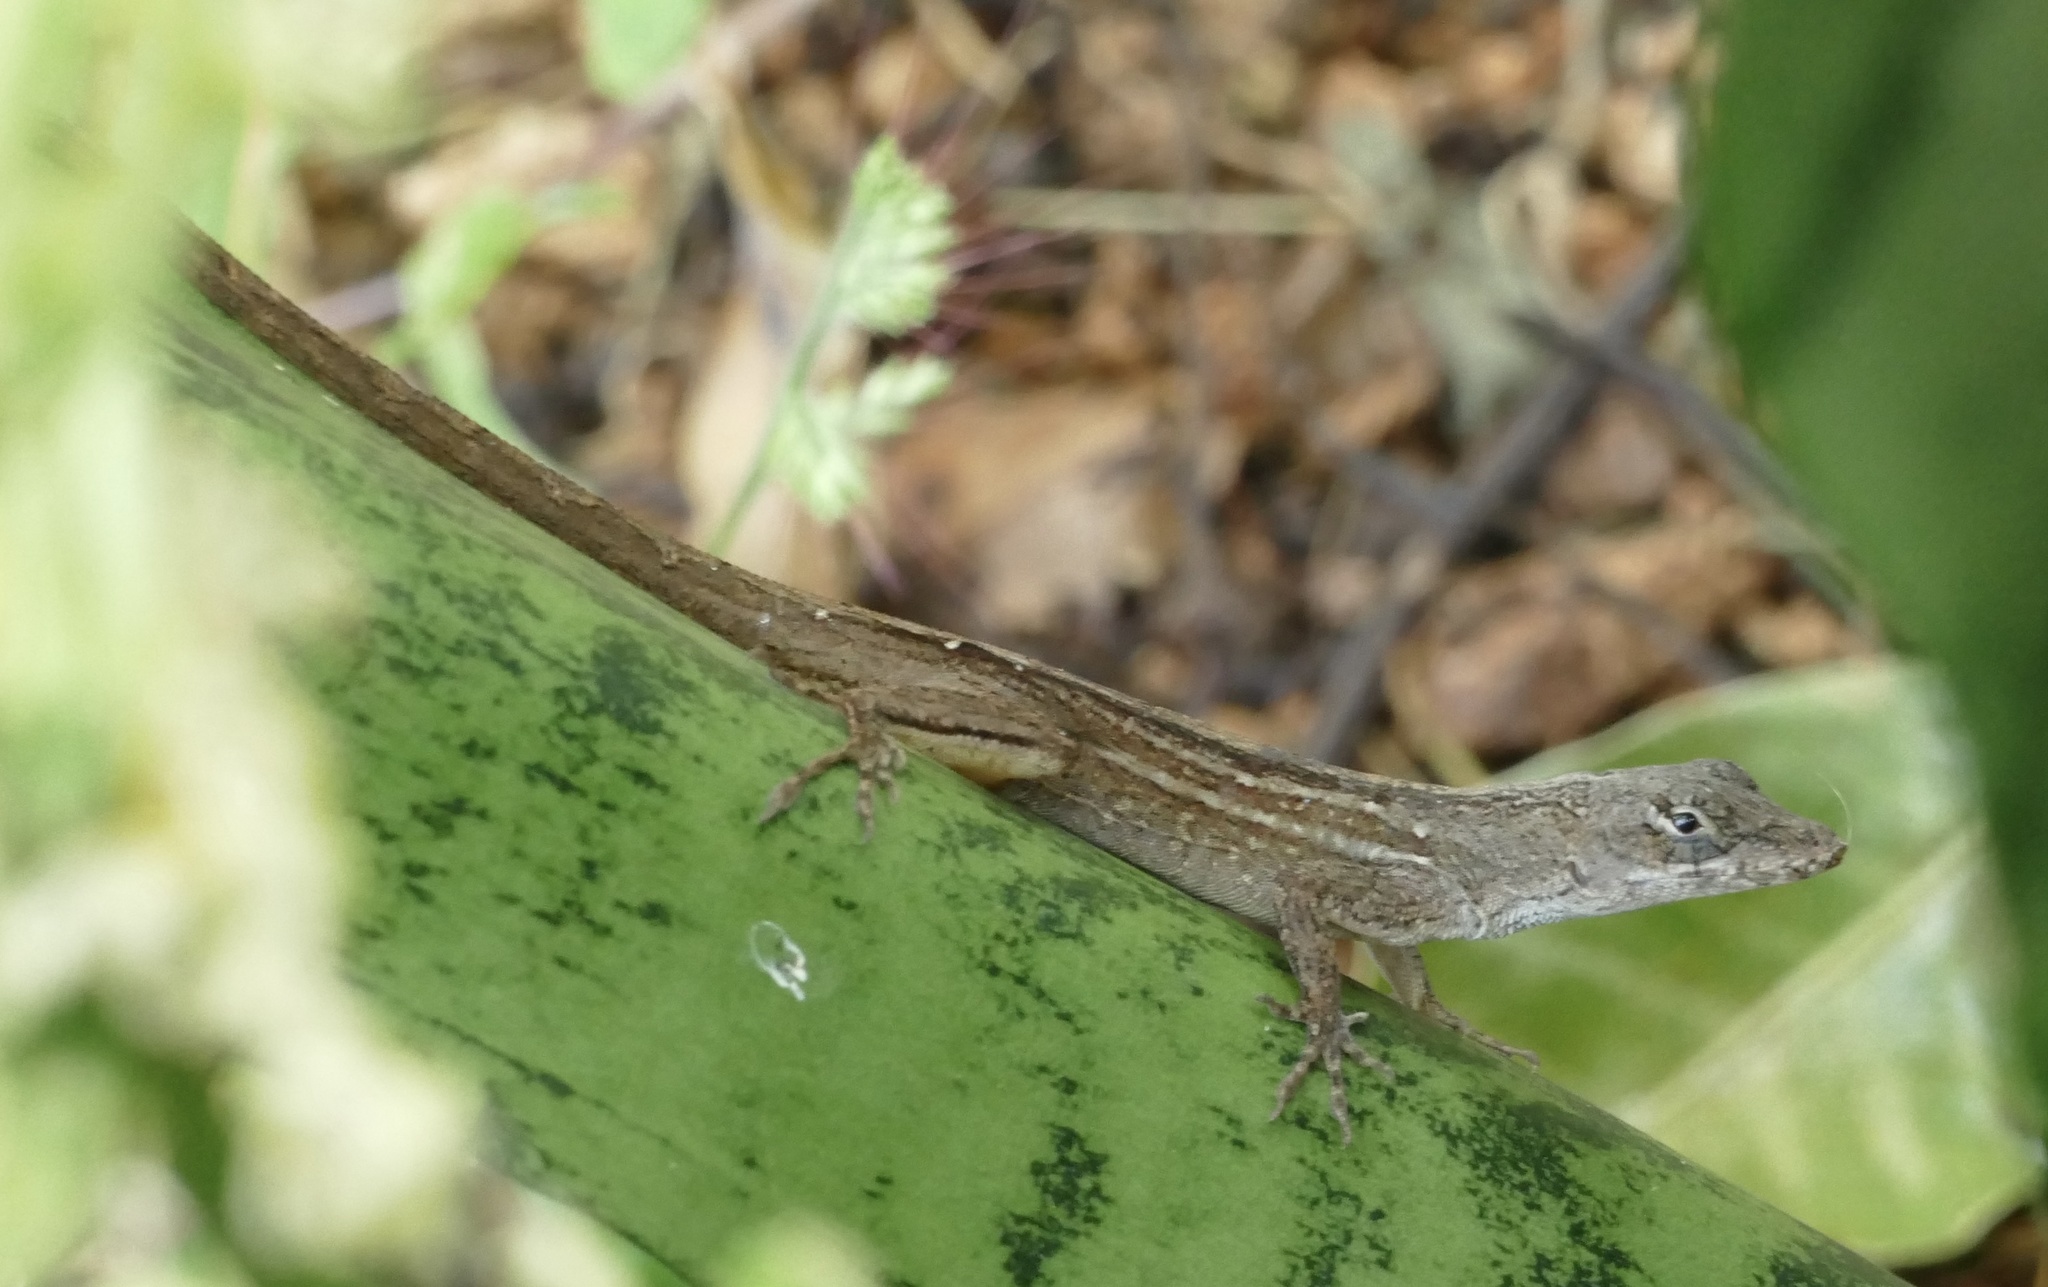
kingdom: Animalia
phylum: Chordata
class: Squamata
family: Dactyloidae
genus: Anolis
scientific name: Anolis sagrei
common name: Brown anole
